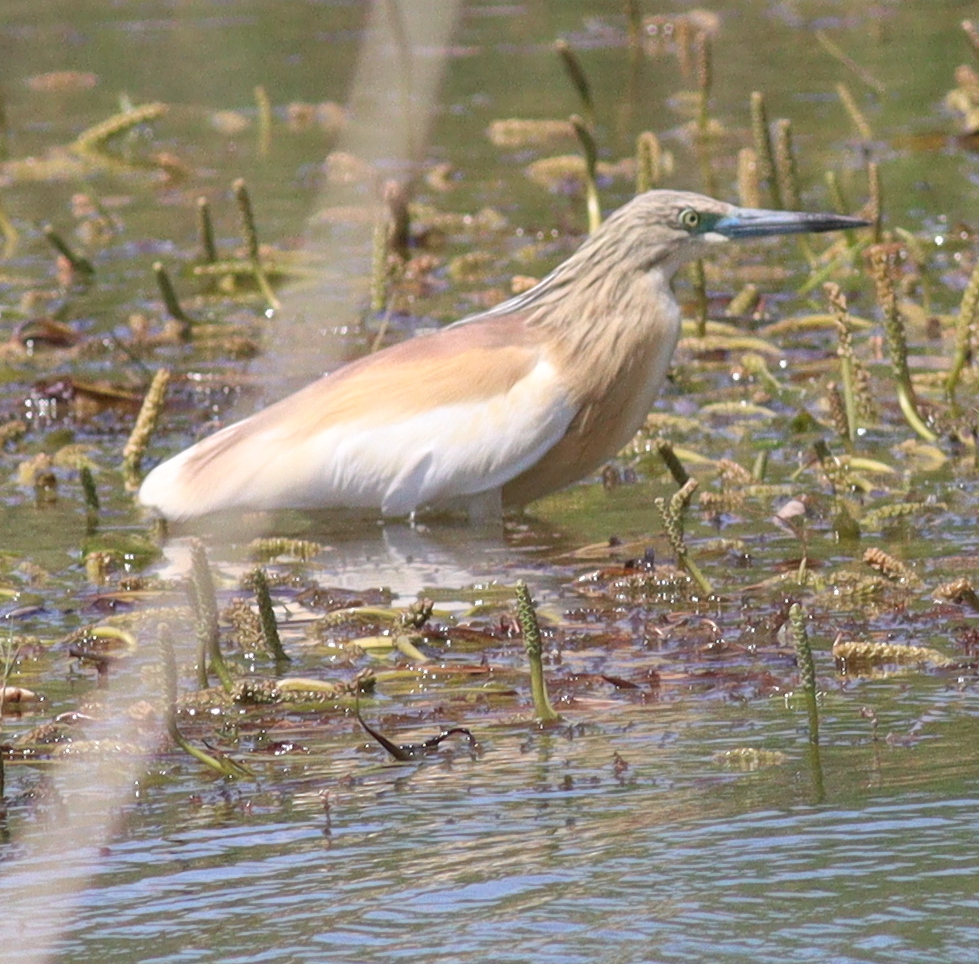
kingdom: Animalia
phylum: Chordata
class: Aves
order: Pelecaniformes
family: Ardeidae
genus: Ardeola
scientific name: Ardeola ralloides
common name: Squacco heron
